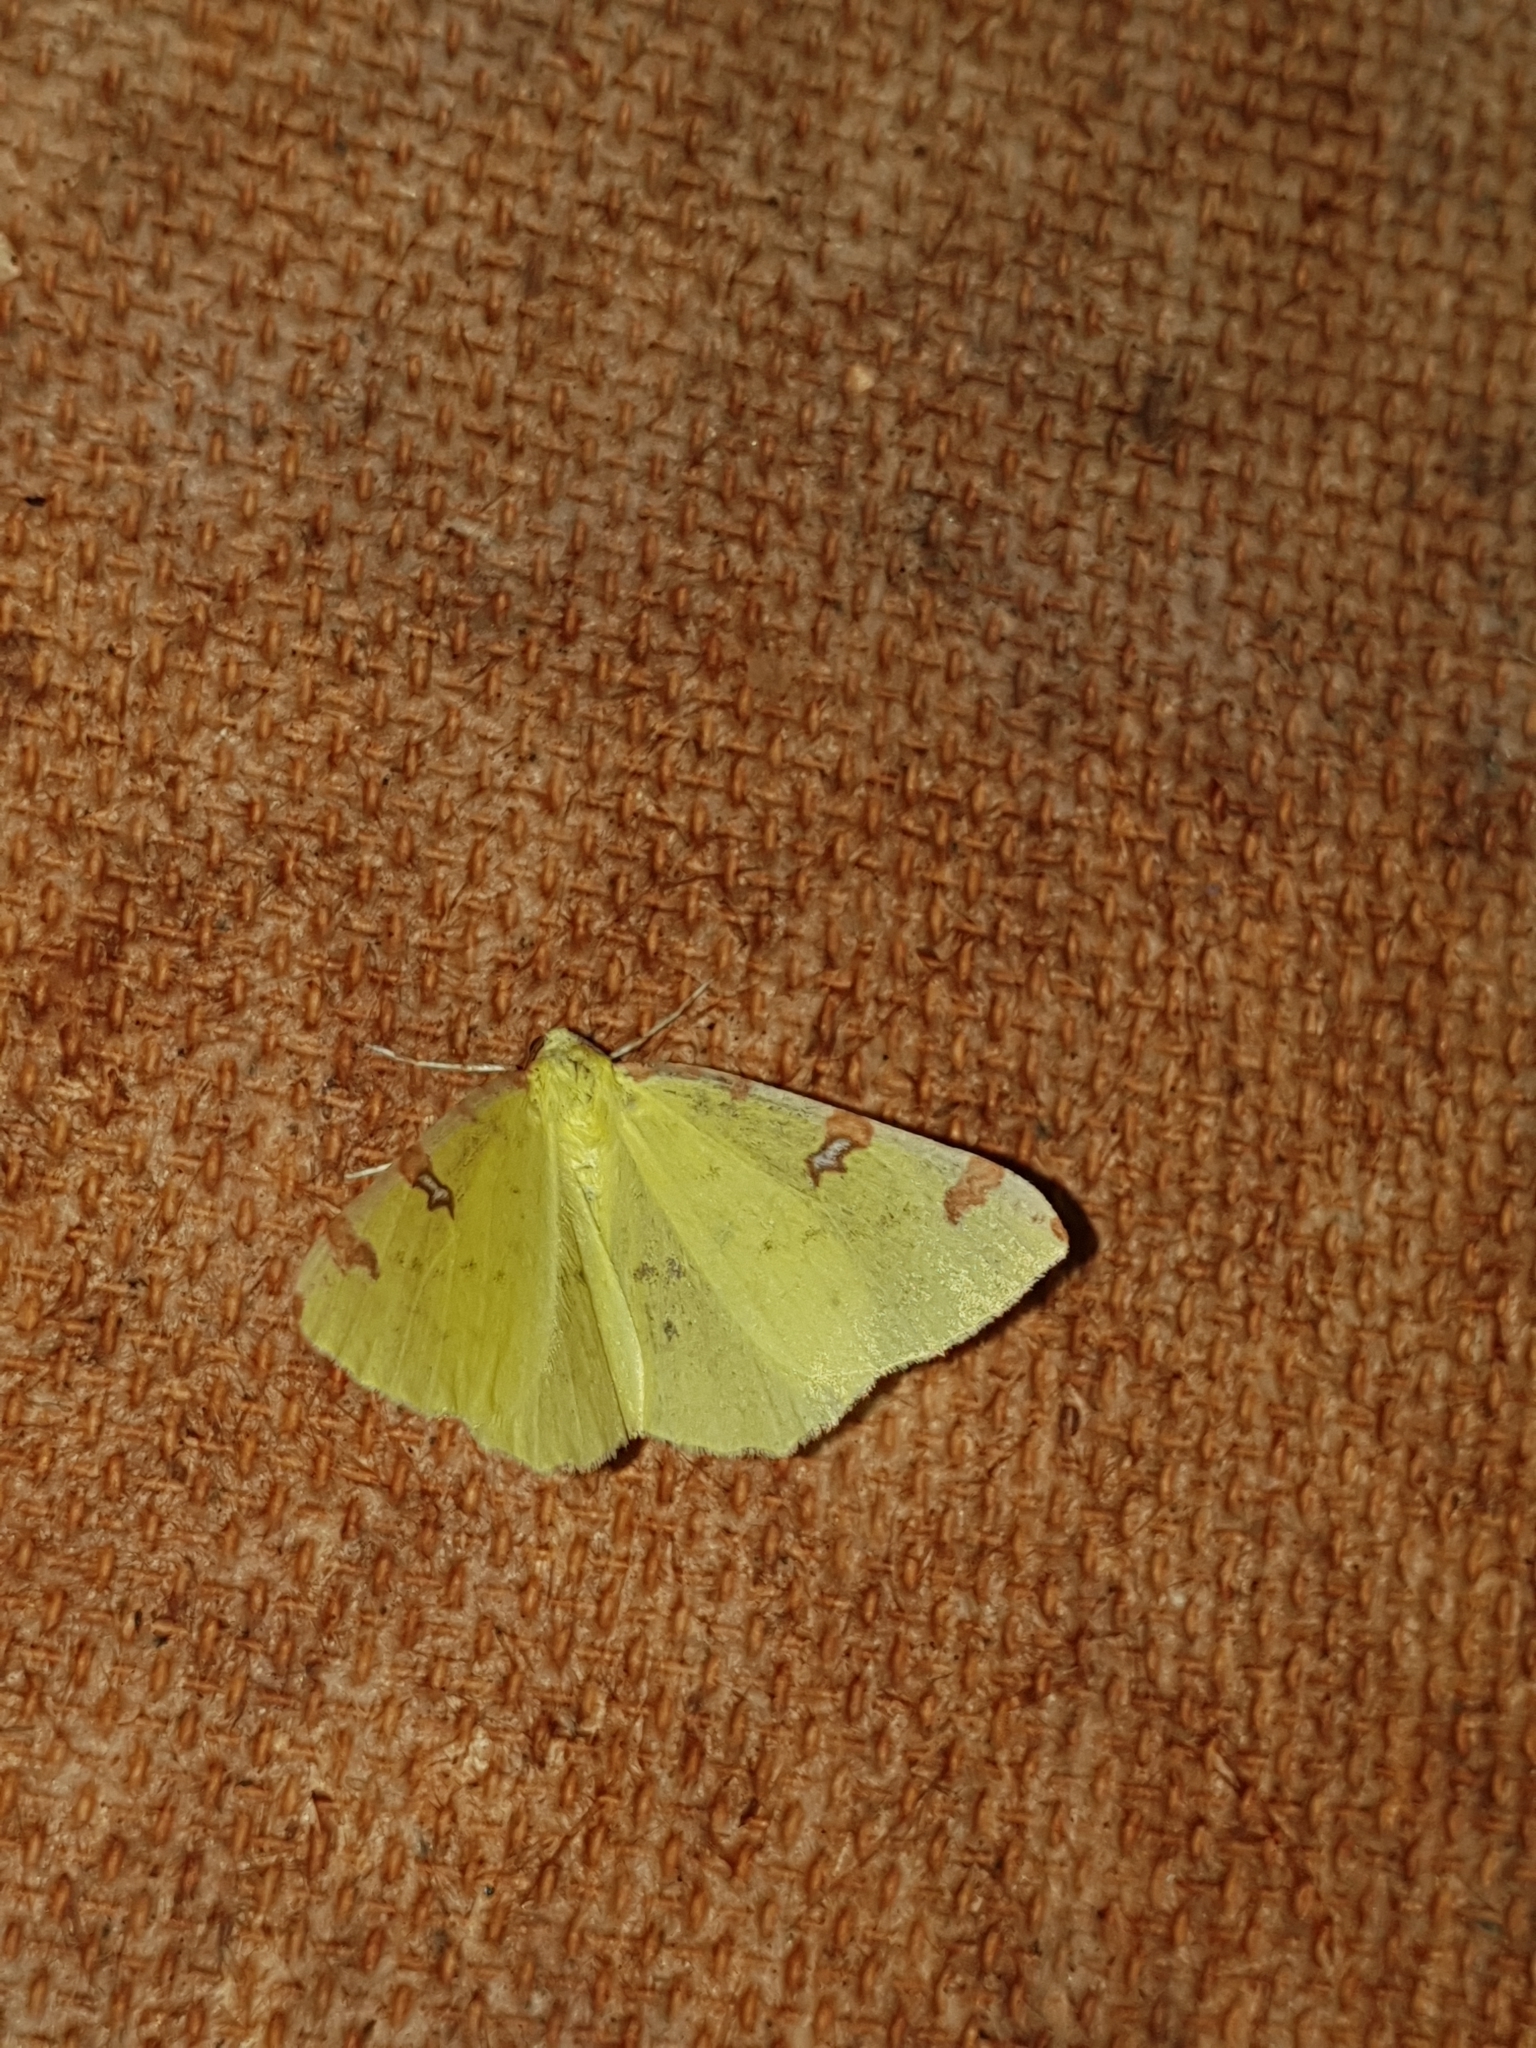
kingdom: Animalia
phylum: Arthropoda
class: Insecta
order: Lepidoptera
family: Geometridae
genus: Opisthograptis
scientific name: Opisthograptis luteolata
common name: Brimstone moth
